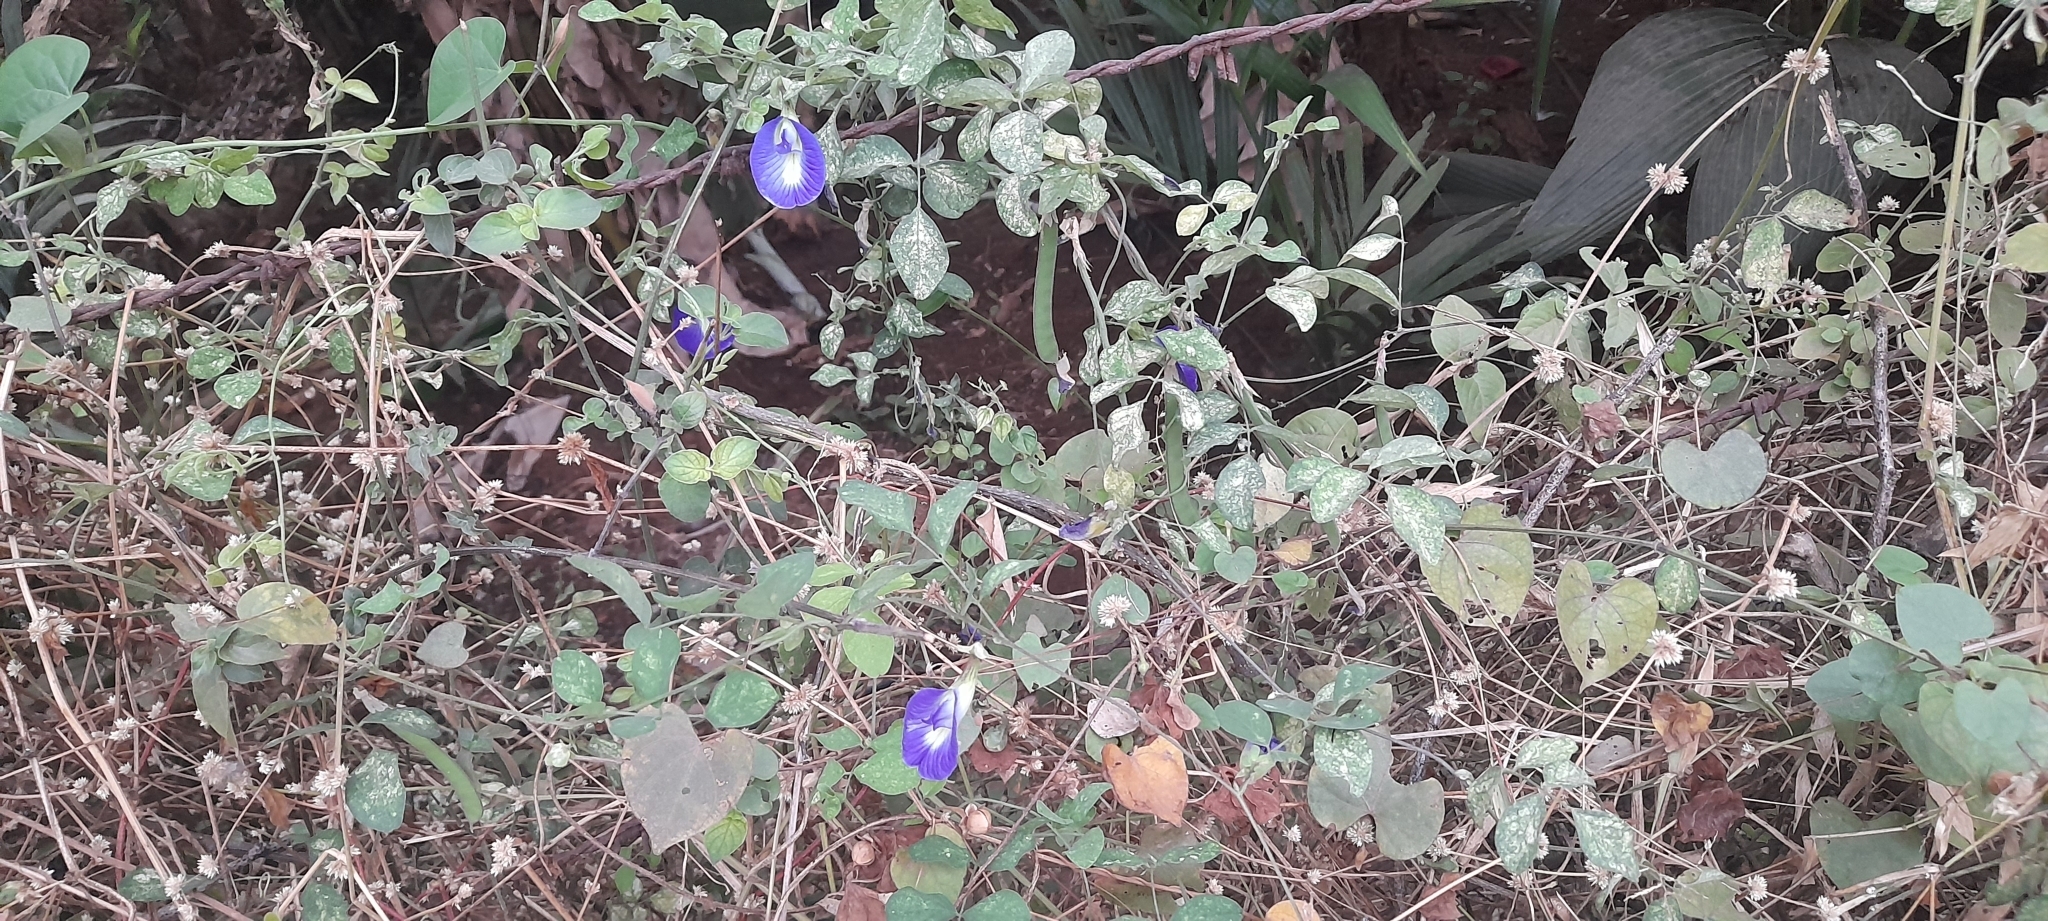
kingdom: Plantae
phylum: Tracheophyta
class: Magnoliopsida
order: Fabales
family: Fabaceae
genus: Clitoria
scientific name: Clitoria ternatea
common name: Asian pigeonwings
